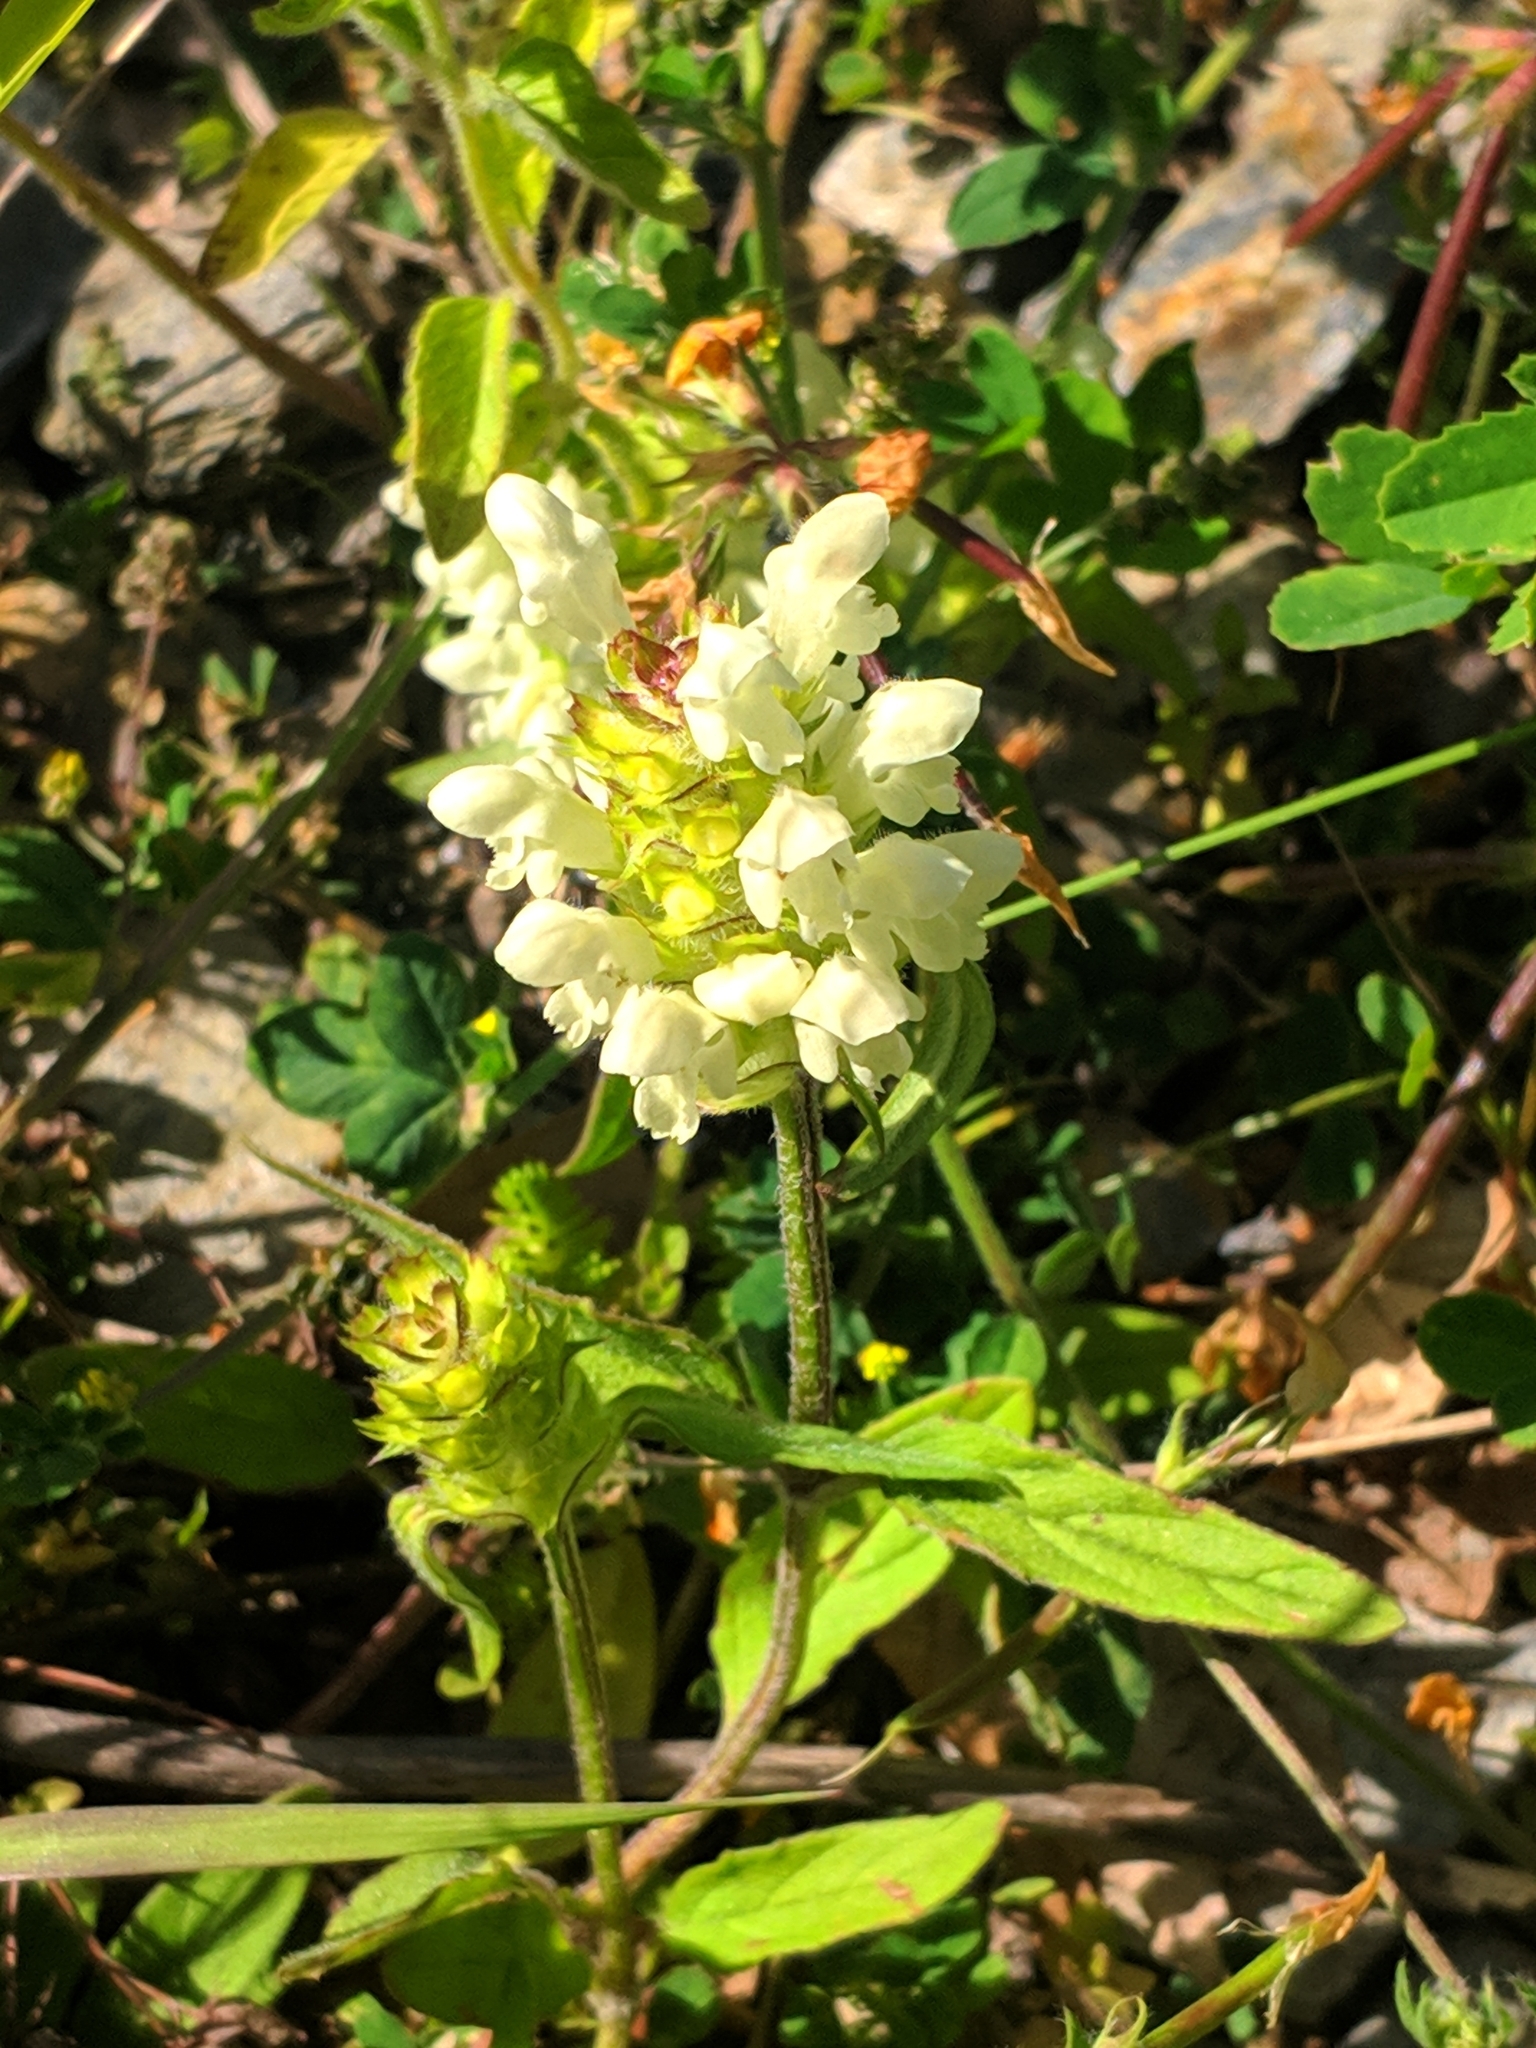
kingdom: Plantae
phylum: Tracheophyta
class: Magnoliopsida
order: Lamiales
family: Lamiaceae
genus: Prunella
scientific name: Prunella laciniata
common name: Cut-leaved selfheal
